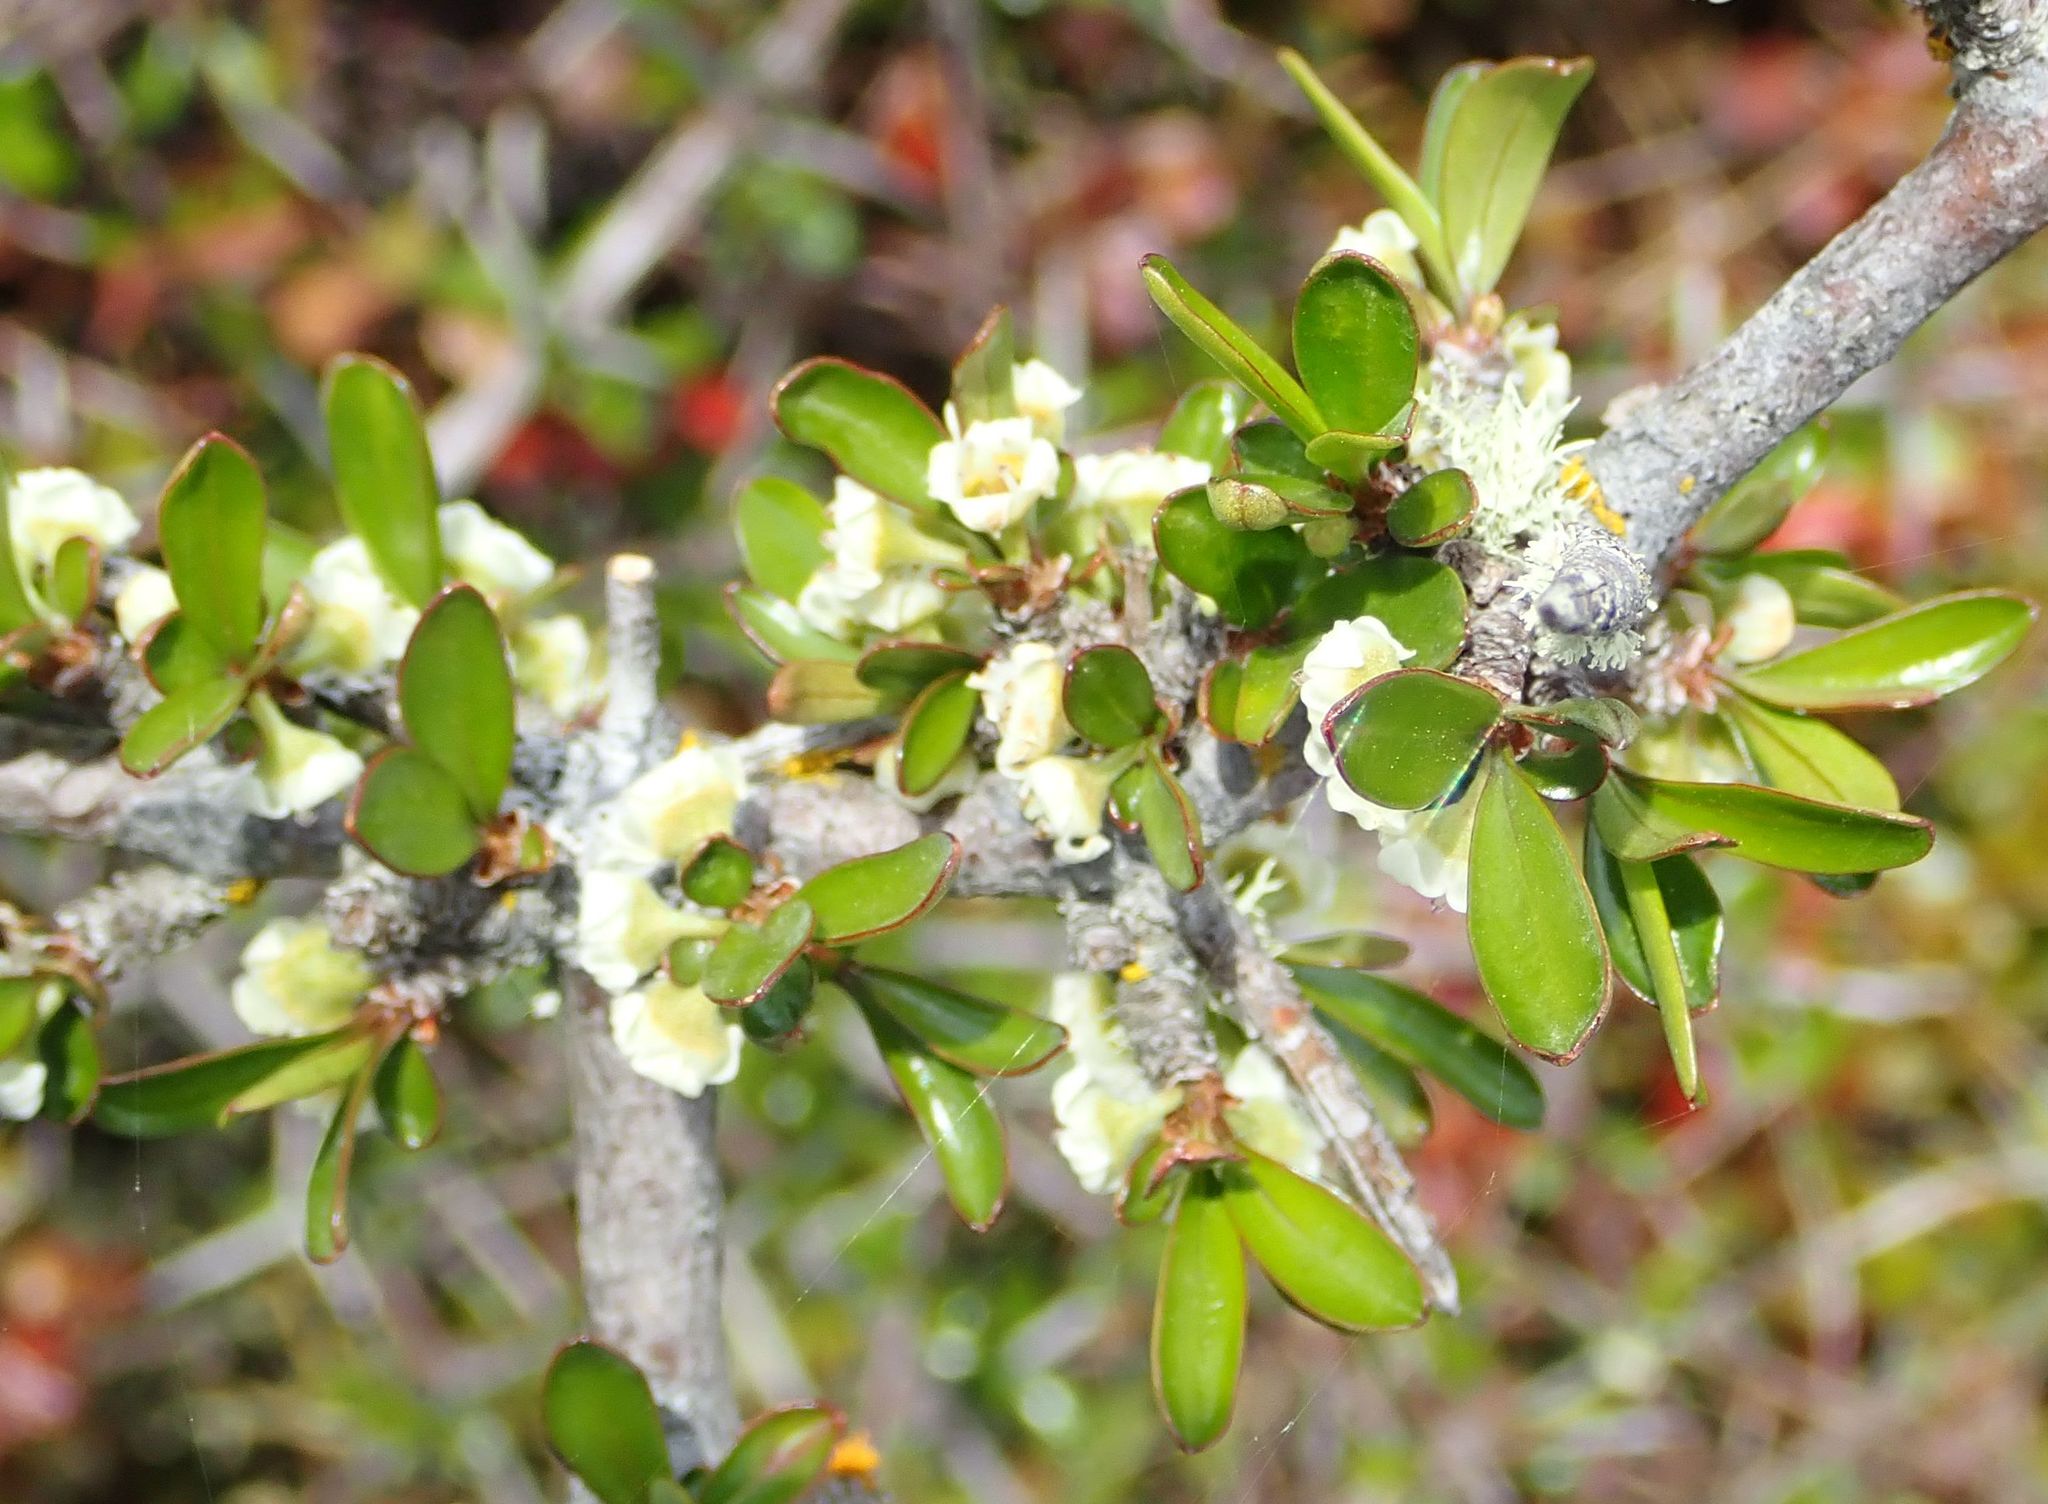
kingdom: Plantae
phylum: Tracheophyta
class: Magnoliopsida
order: Malpighiales
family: Violaceae
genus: Melicytus
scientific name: Melicytus alpinus
